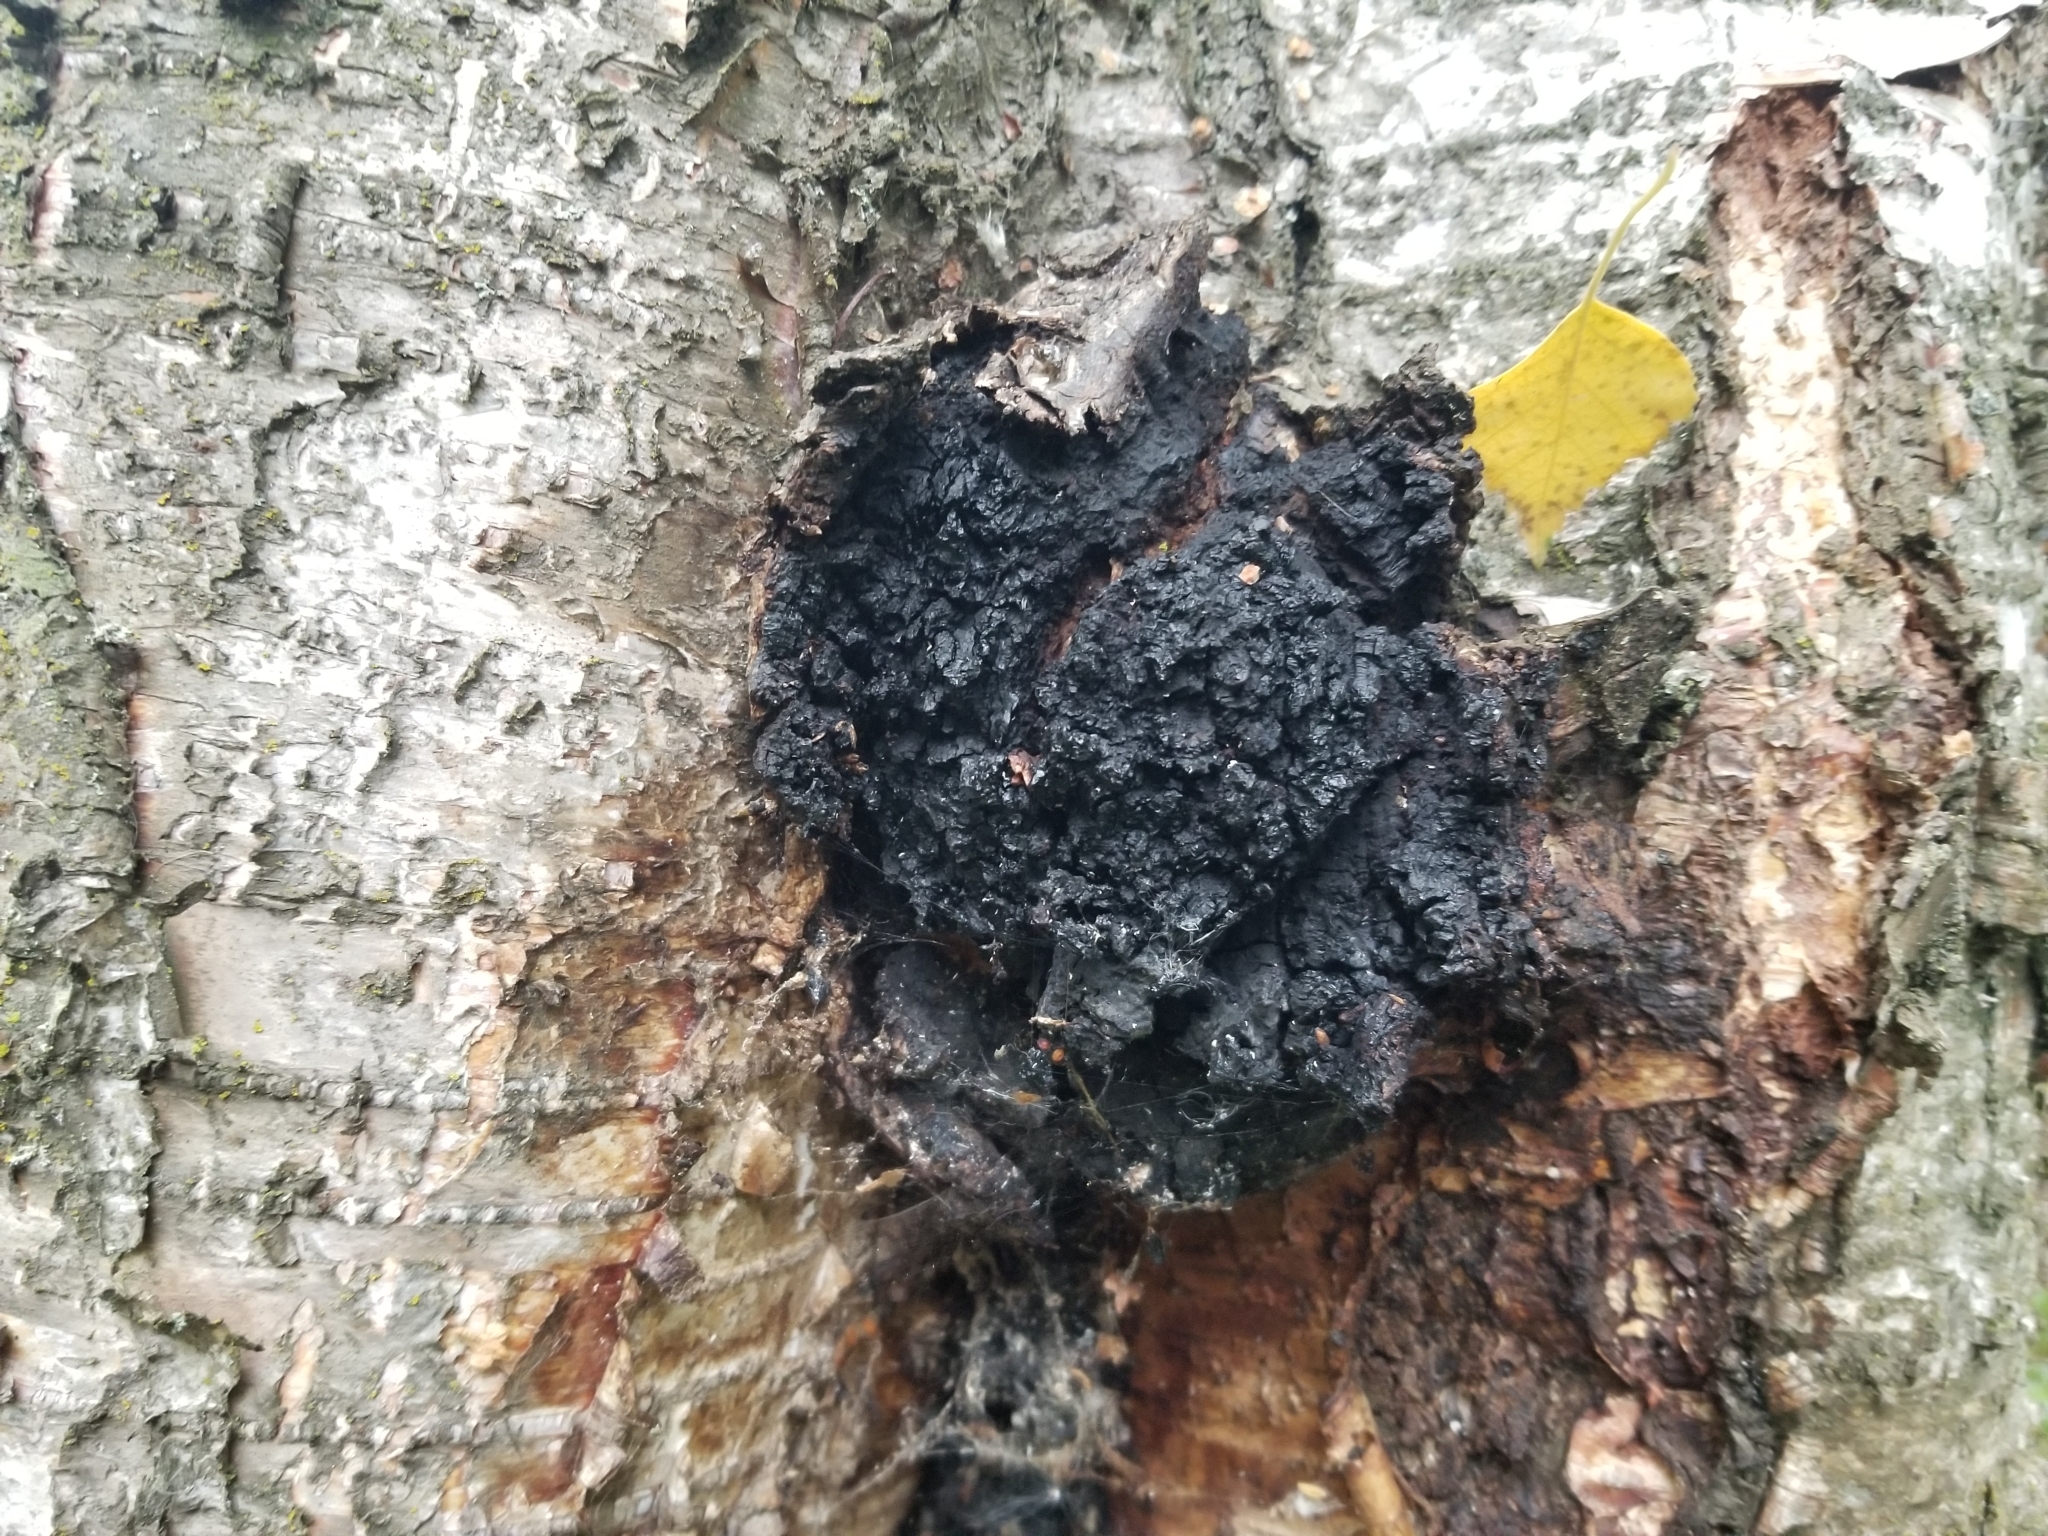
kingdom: Fungi
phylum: Basidiomycota
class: Agaricomycetes
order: Hymenochaetales
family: Hymenochaetaceae
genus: Inonotus
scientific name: Inonotus obliquus
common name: Chaga
